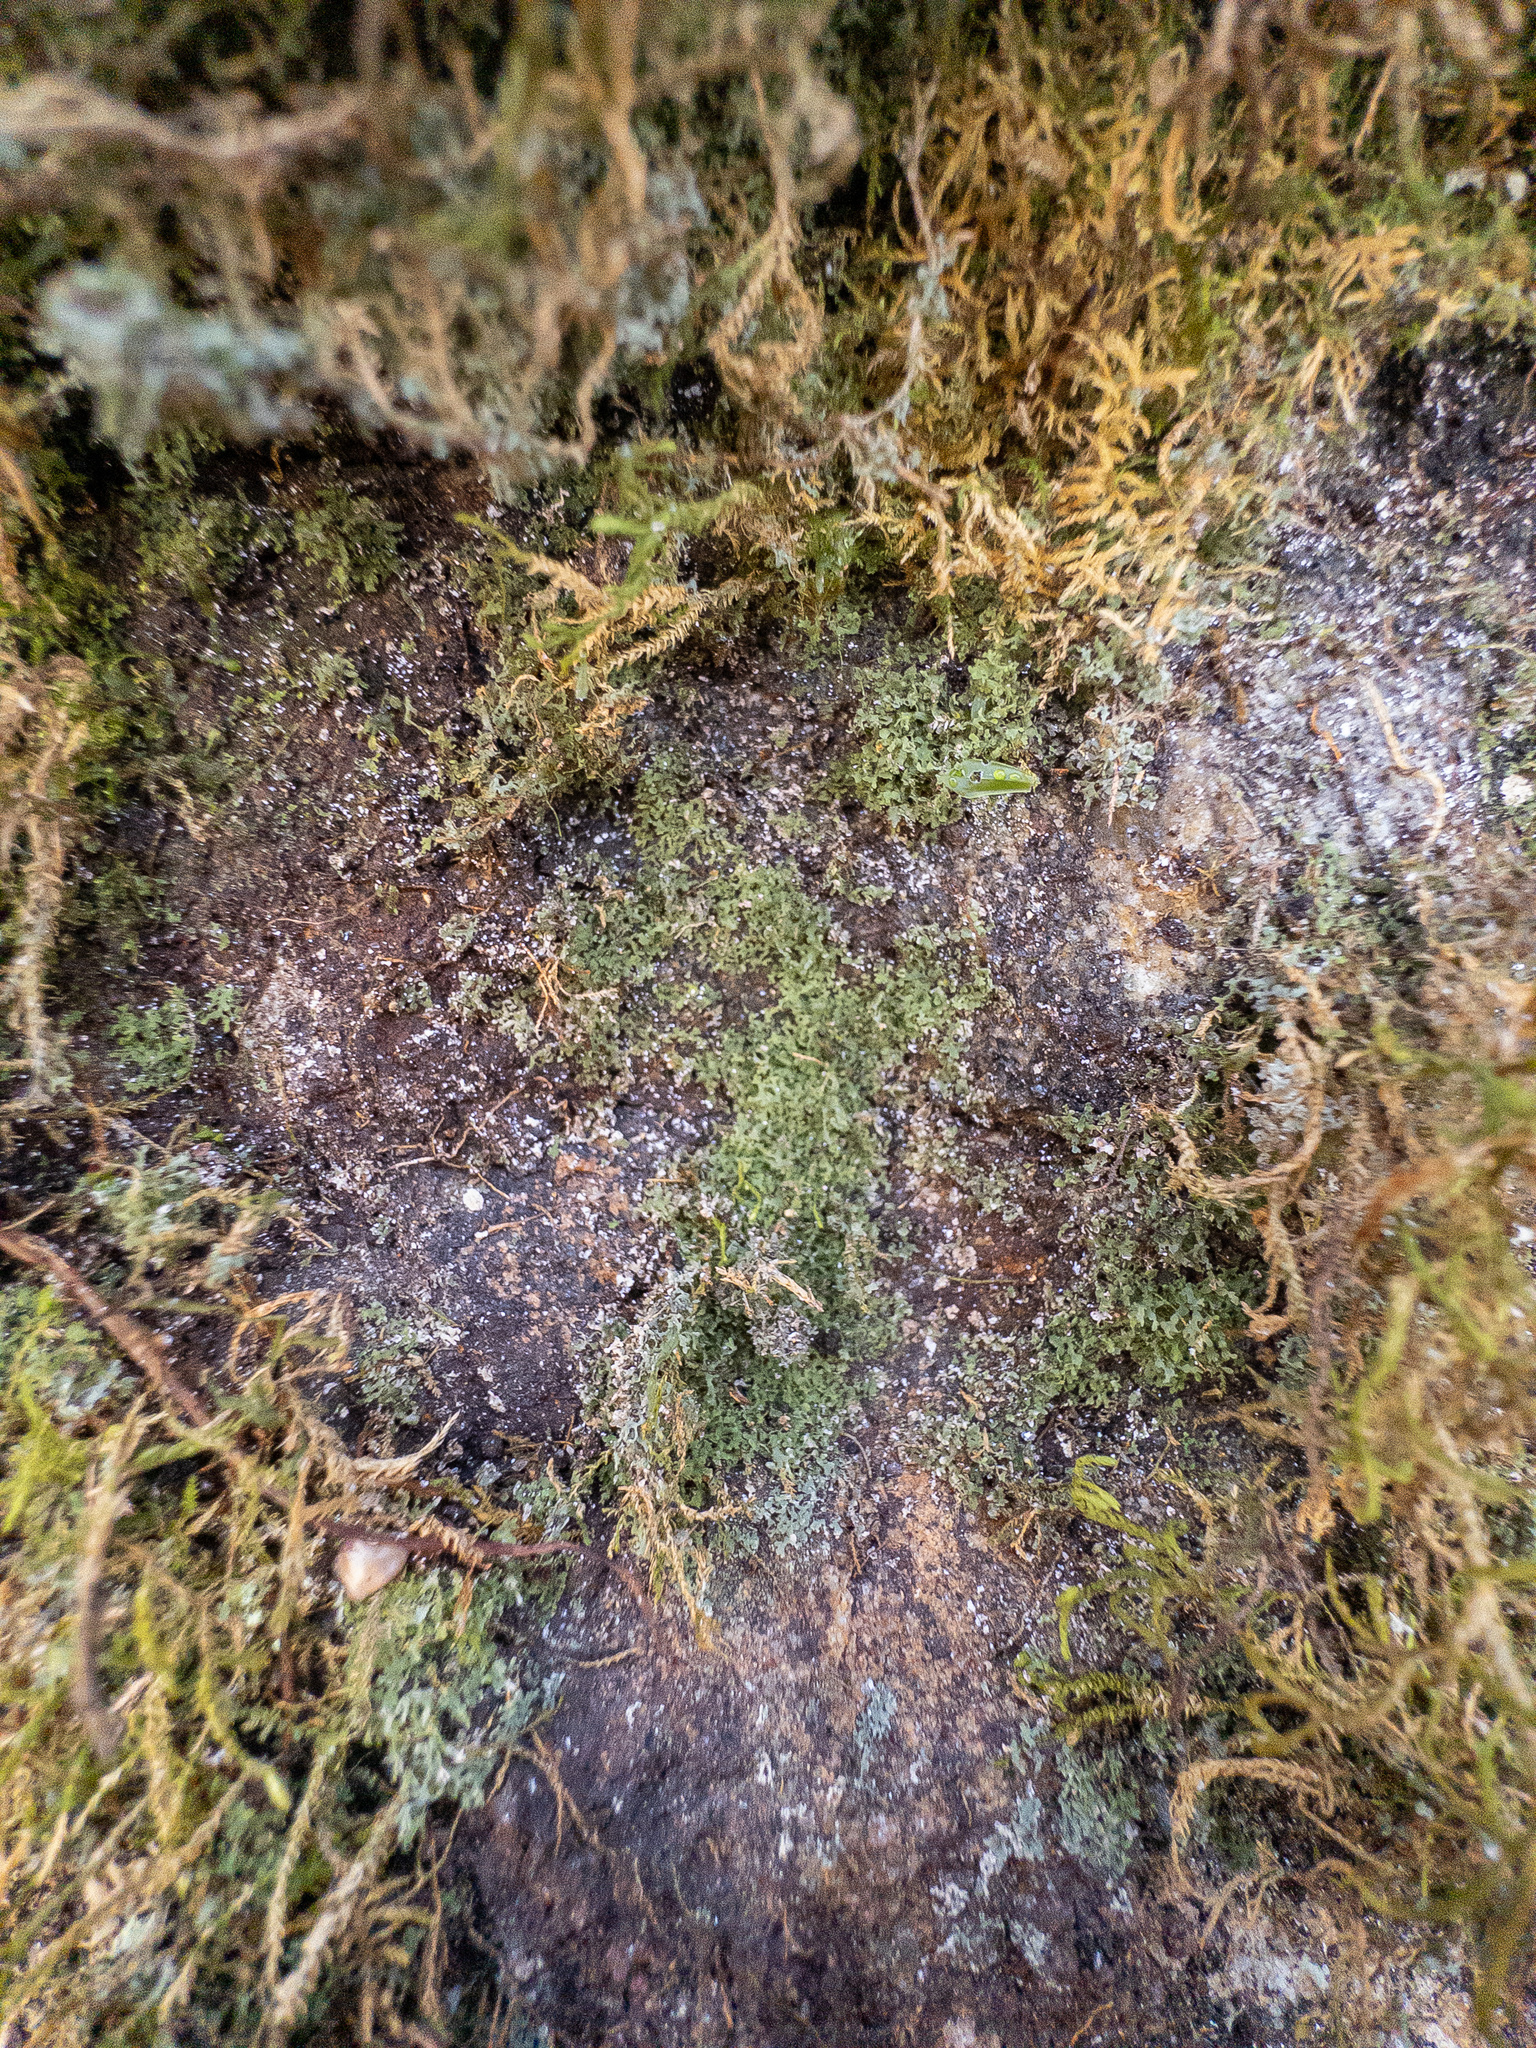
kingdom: Fungi
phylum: Ascomycota
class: Eurotiomycetes
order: Verrucariales
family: Verrucariaceae
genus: Flakea
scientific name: Flakea papillata
